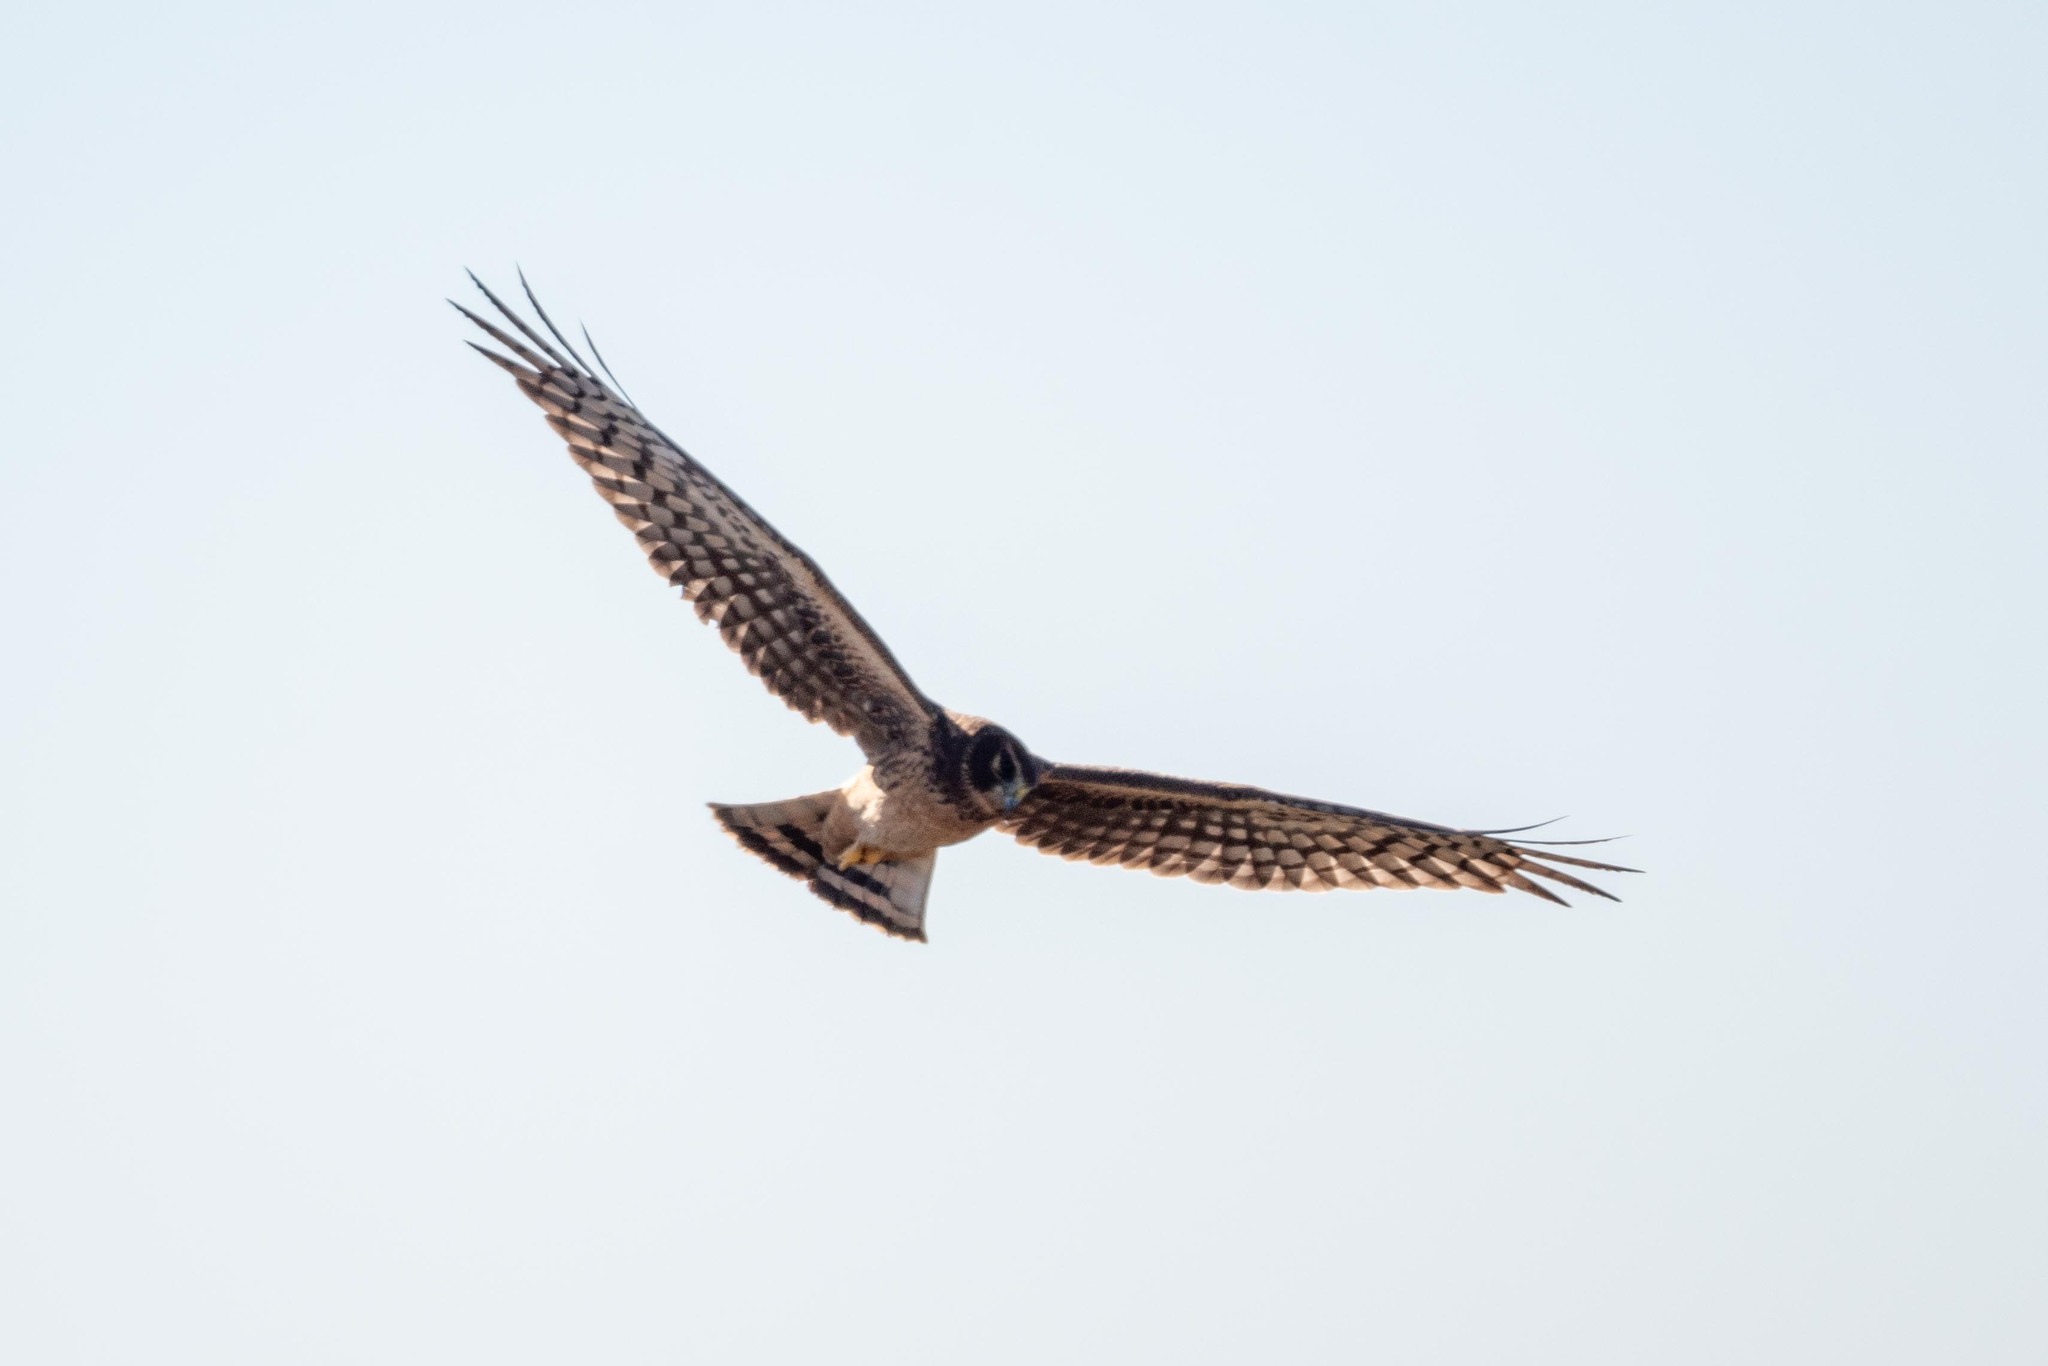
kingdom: Animalia
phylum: Chordata
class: Aves
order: Accipitriformes
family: Accipitridae
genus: Circus
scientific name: Circus cyaneus
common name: Hen harrier
